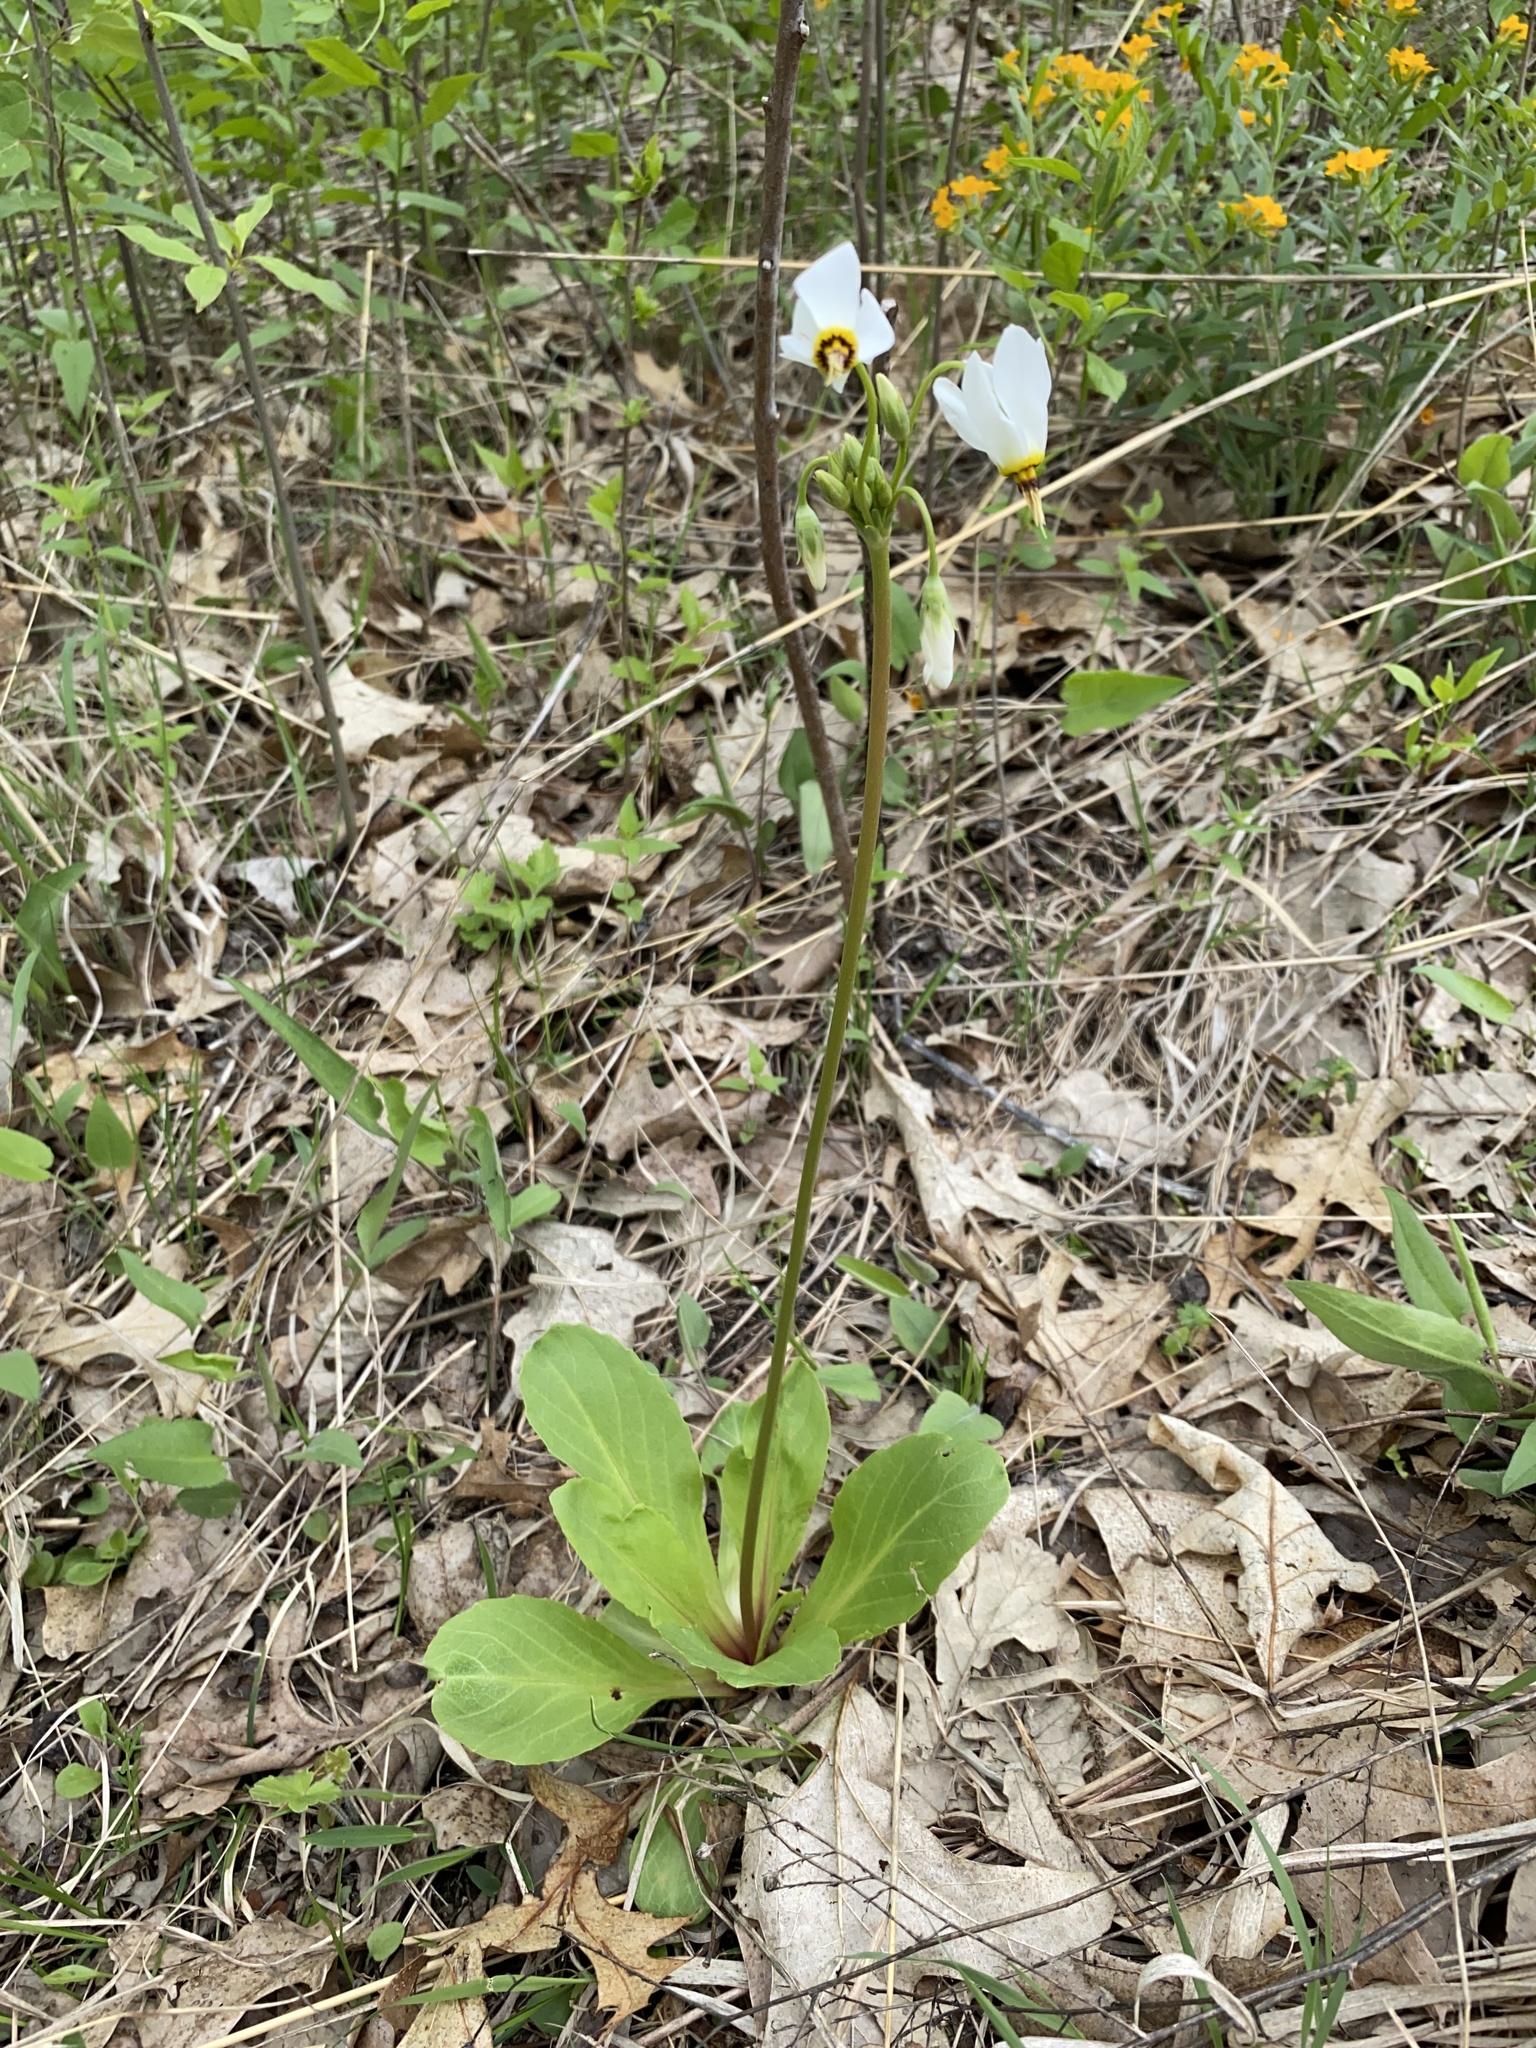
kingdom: Plantae
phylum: Tracheophyta
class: Magnoliopsida
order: Ericales
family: Primulaceae
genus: Dodecatheon
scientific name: Dodecatheon meadia
